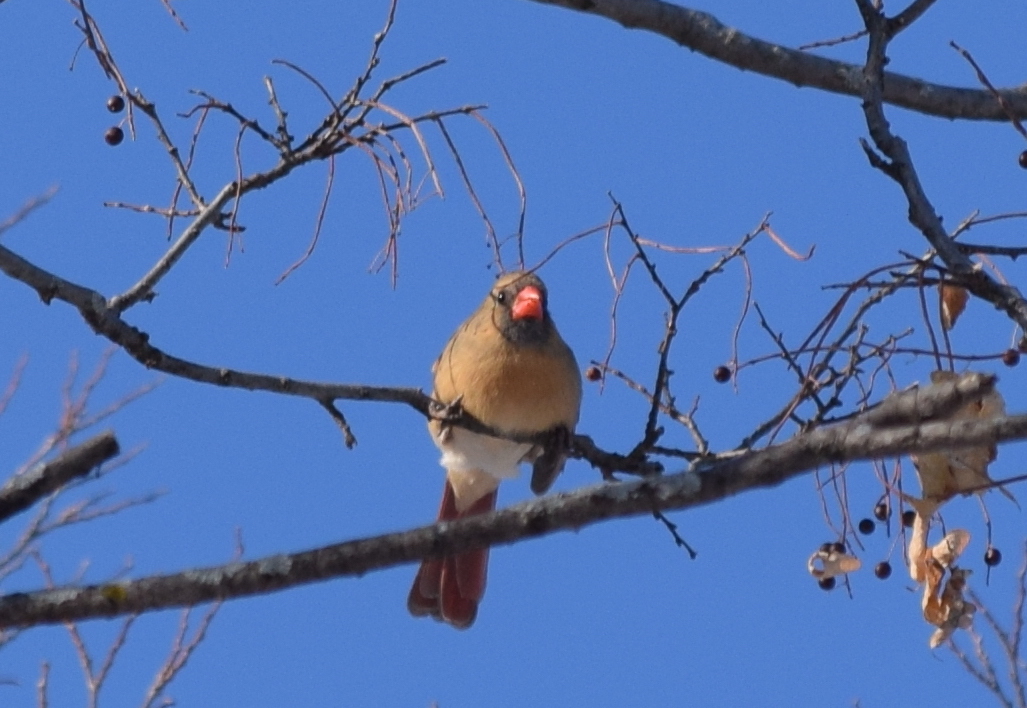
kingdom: Animalia
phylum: Chordata
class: Aves
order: Passeriformes
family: Cardinalidae
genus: Cardinalis
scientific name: Cardinalis cardinalis
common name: Northern cardinal
